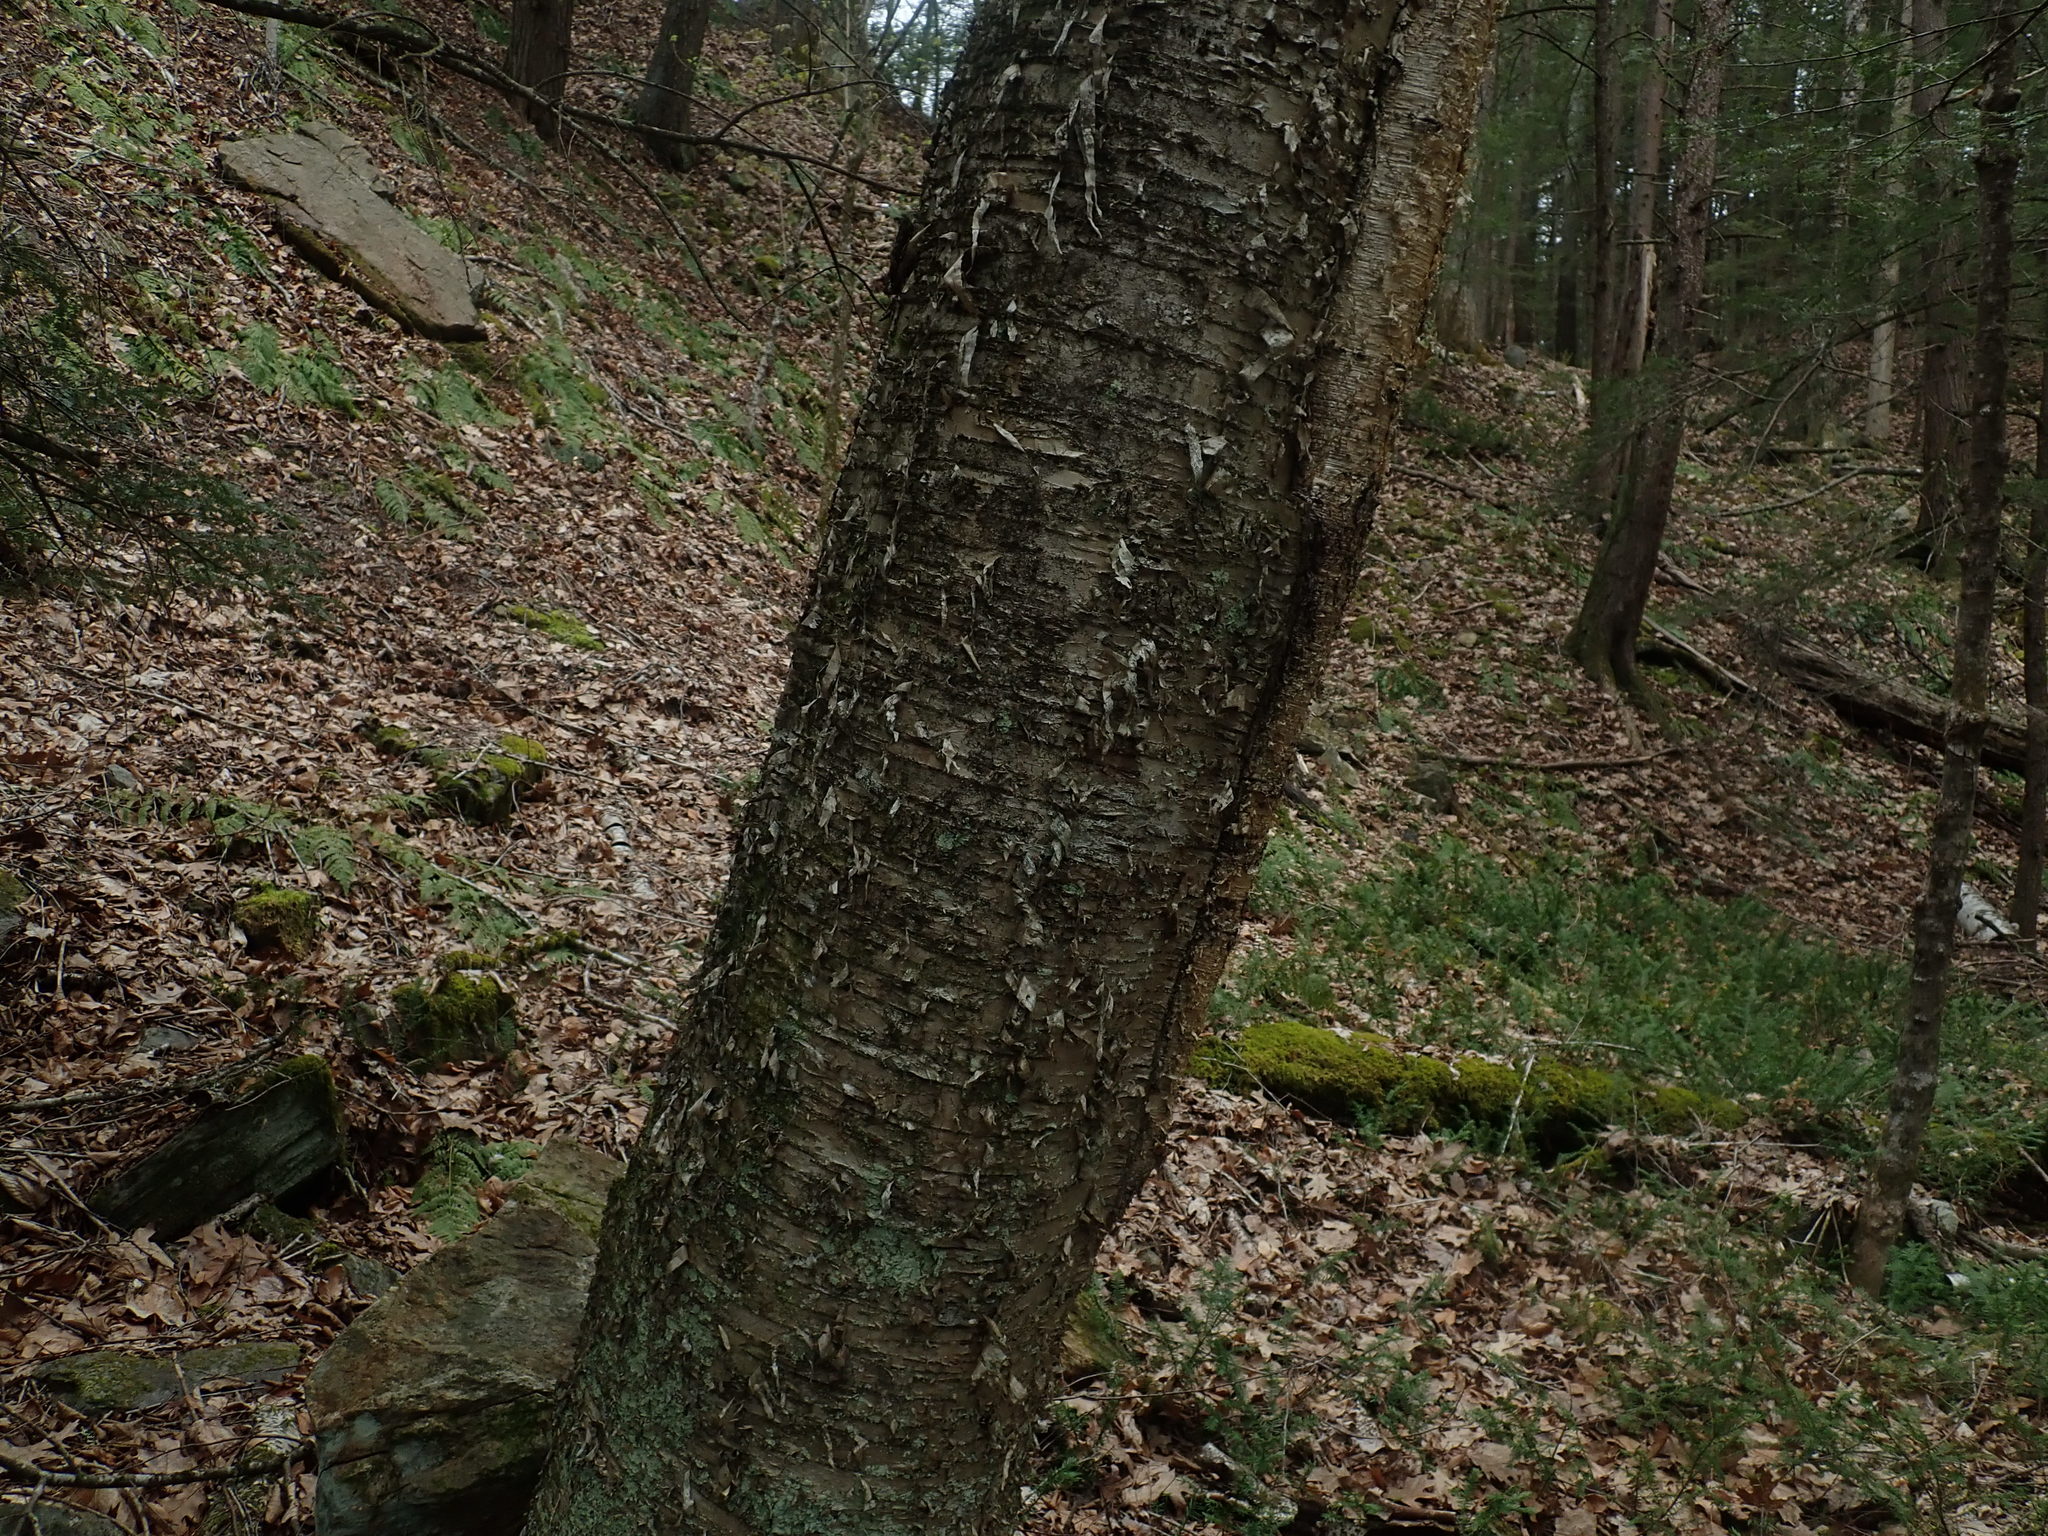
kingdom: Plantae
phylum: Tracheophyta
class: Magnoliopsida
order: Fagales
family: Betulaceae
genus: Betula
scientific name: Betula alleghaniensis
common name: Yellow birch
